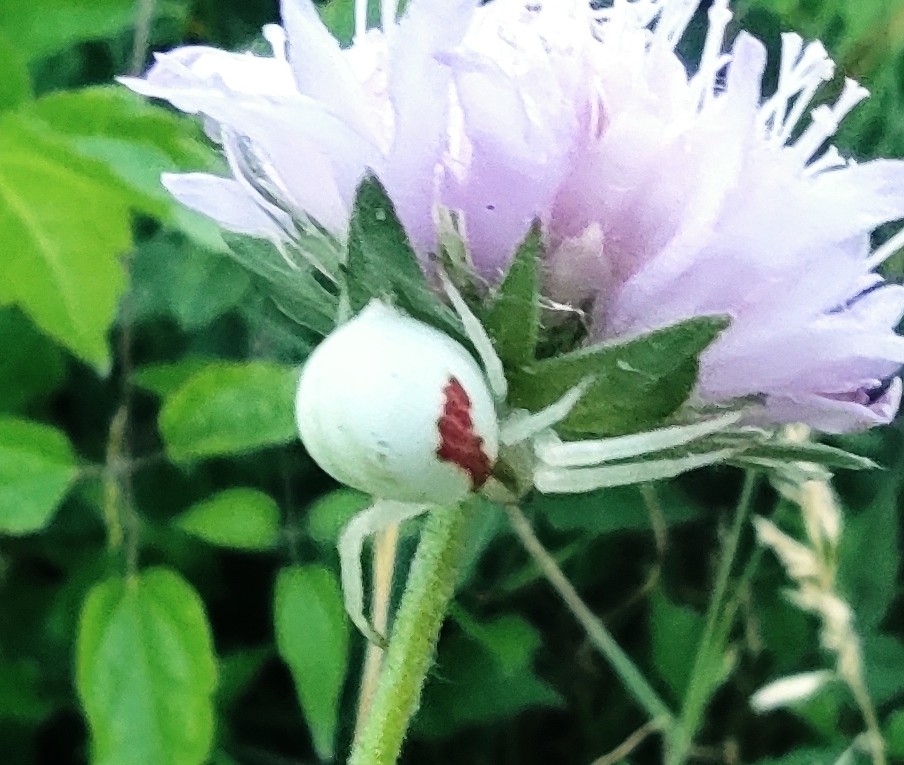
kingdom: Animalia
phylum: Arthropoda
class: Arachnida
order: Araneae
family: Thomisidae
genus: Misumena
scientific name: Misumena vatia
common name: Goldenrod crab spider
